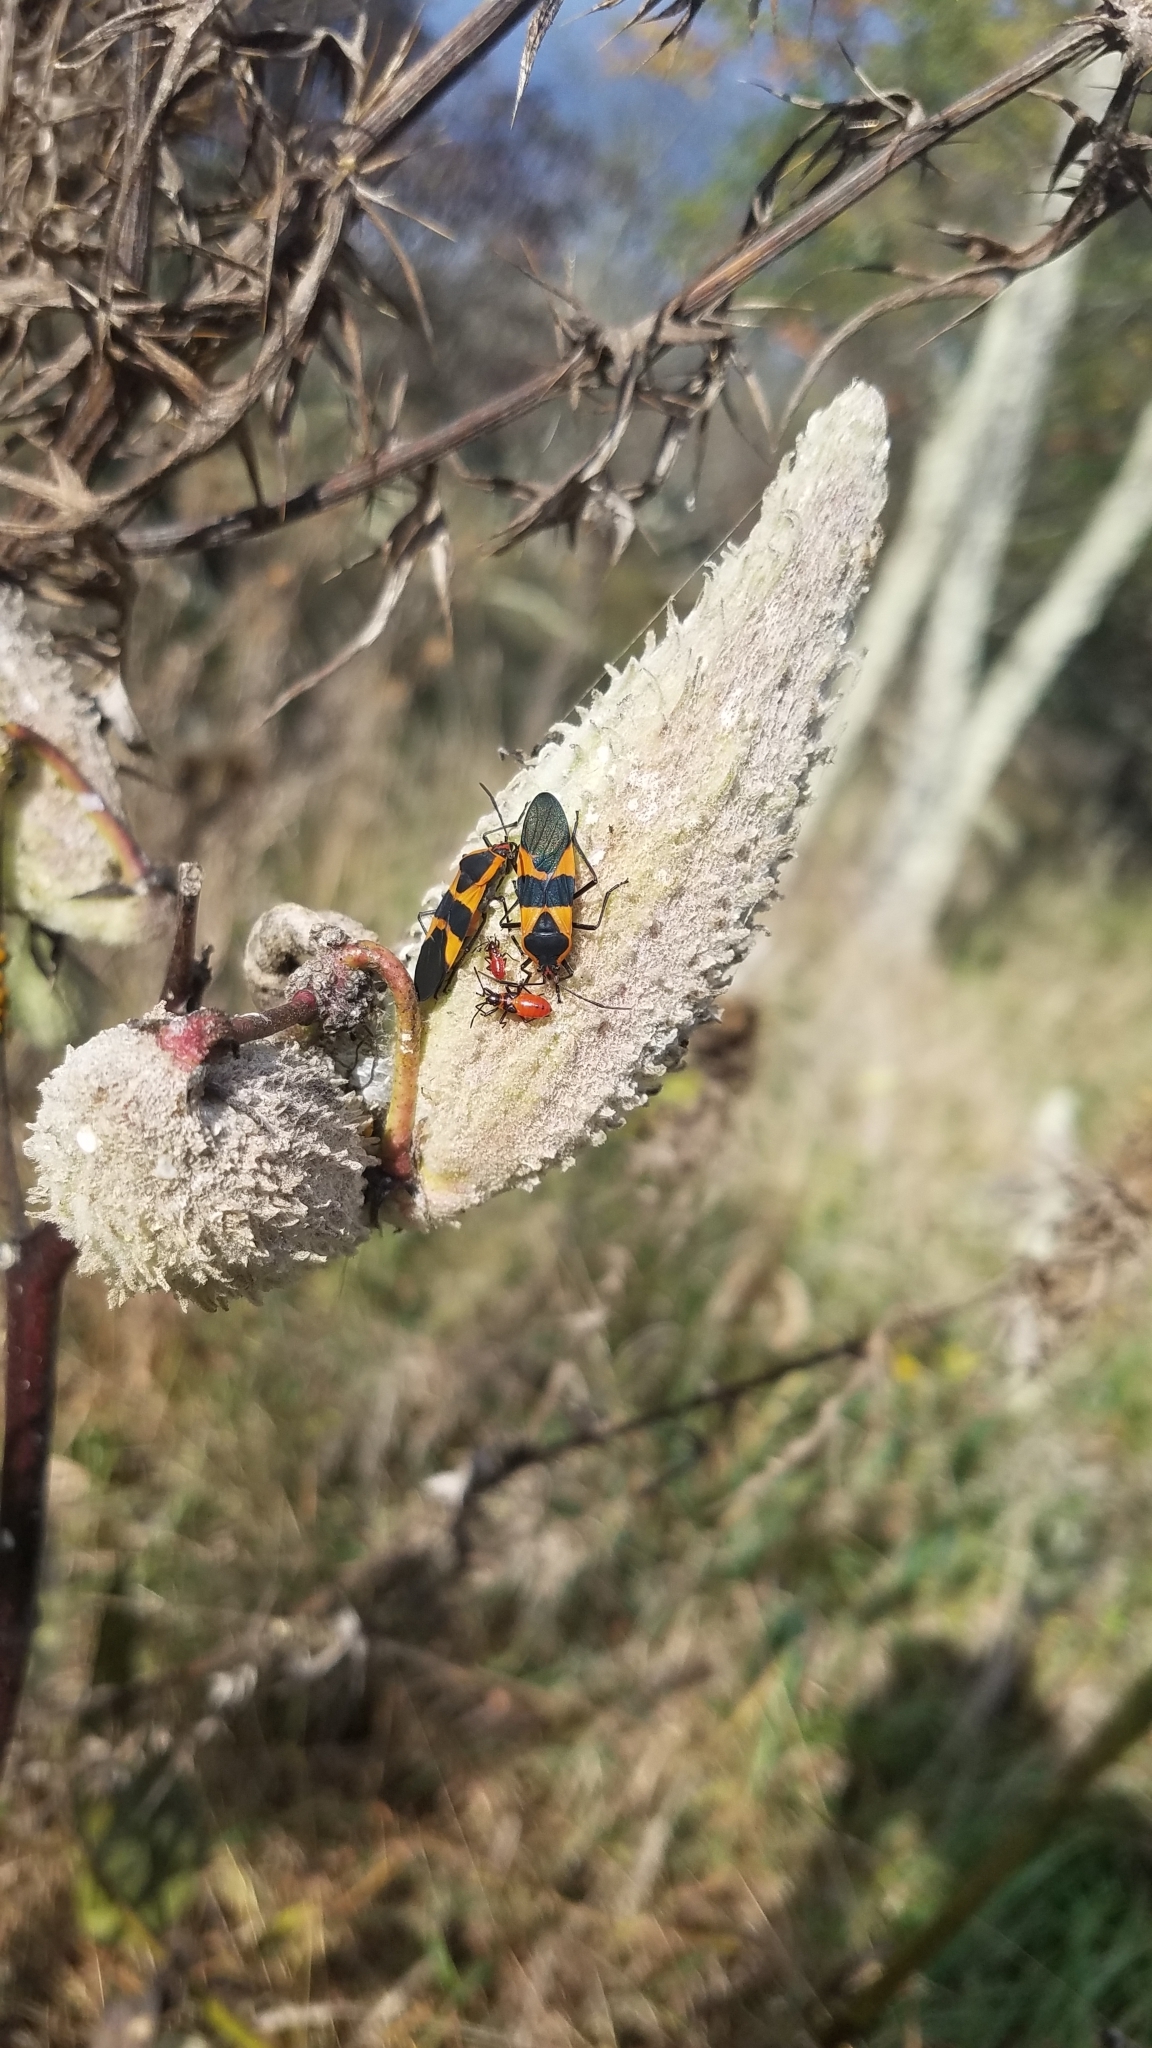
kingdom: Animalia
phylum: Arthropoda
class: Insecta
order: Hemiptera
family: Lygaeidae
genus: Oncopeltus
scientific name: Oncopeltus fasciatus
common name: Large milkweed bug
